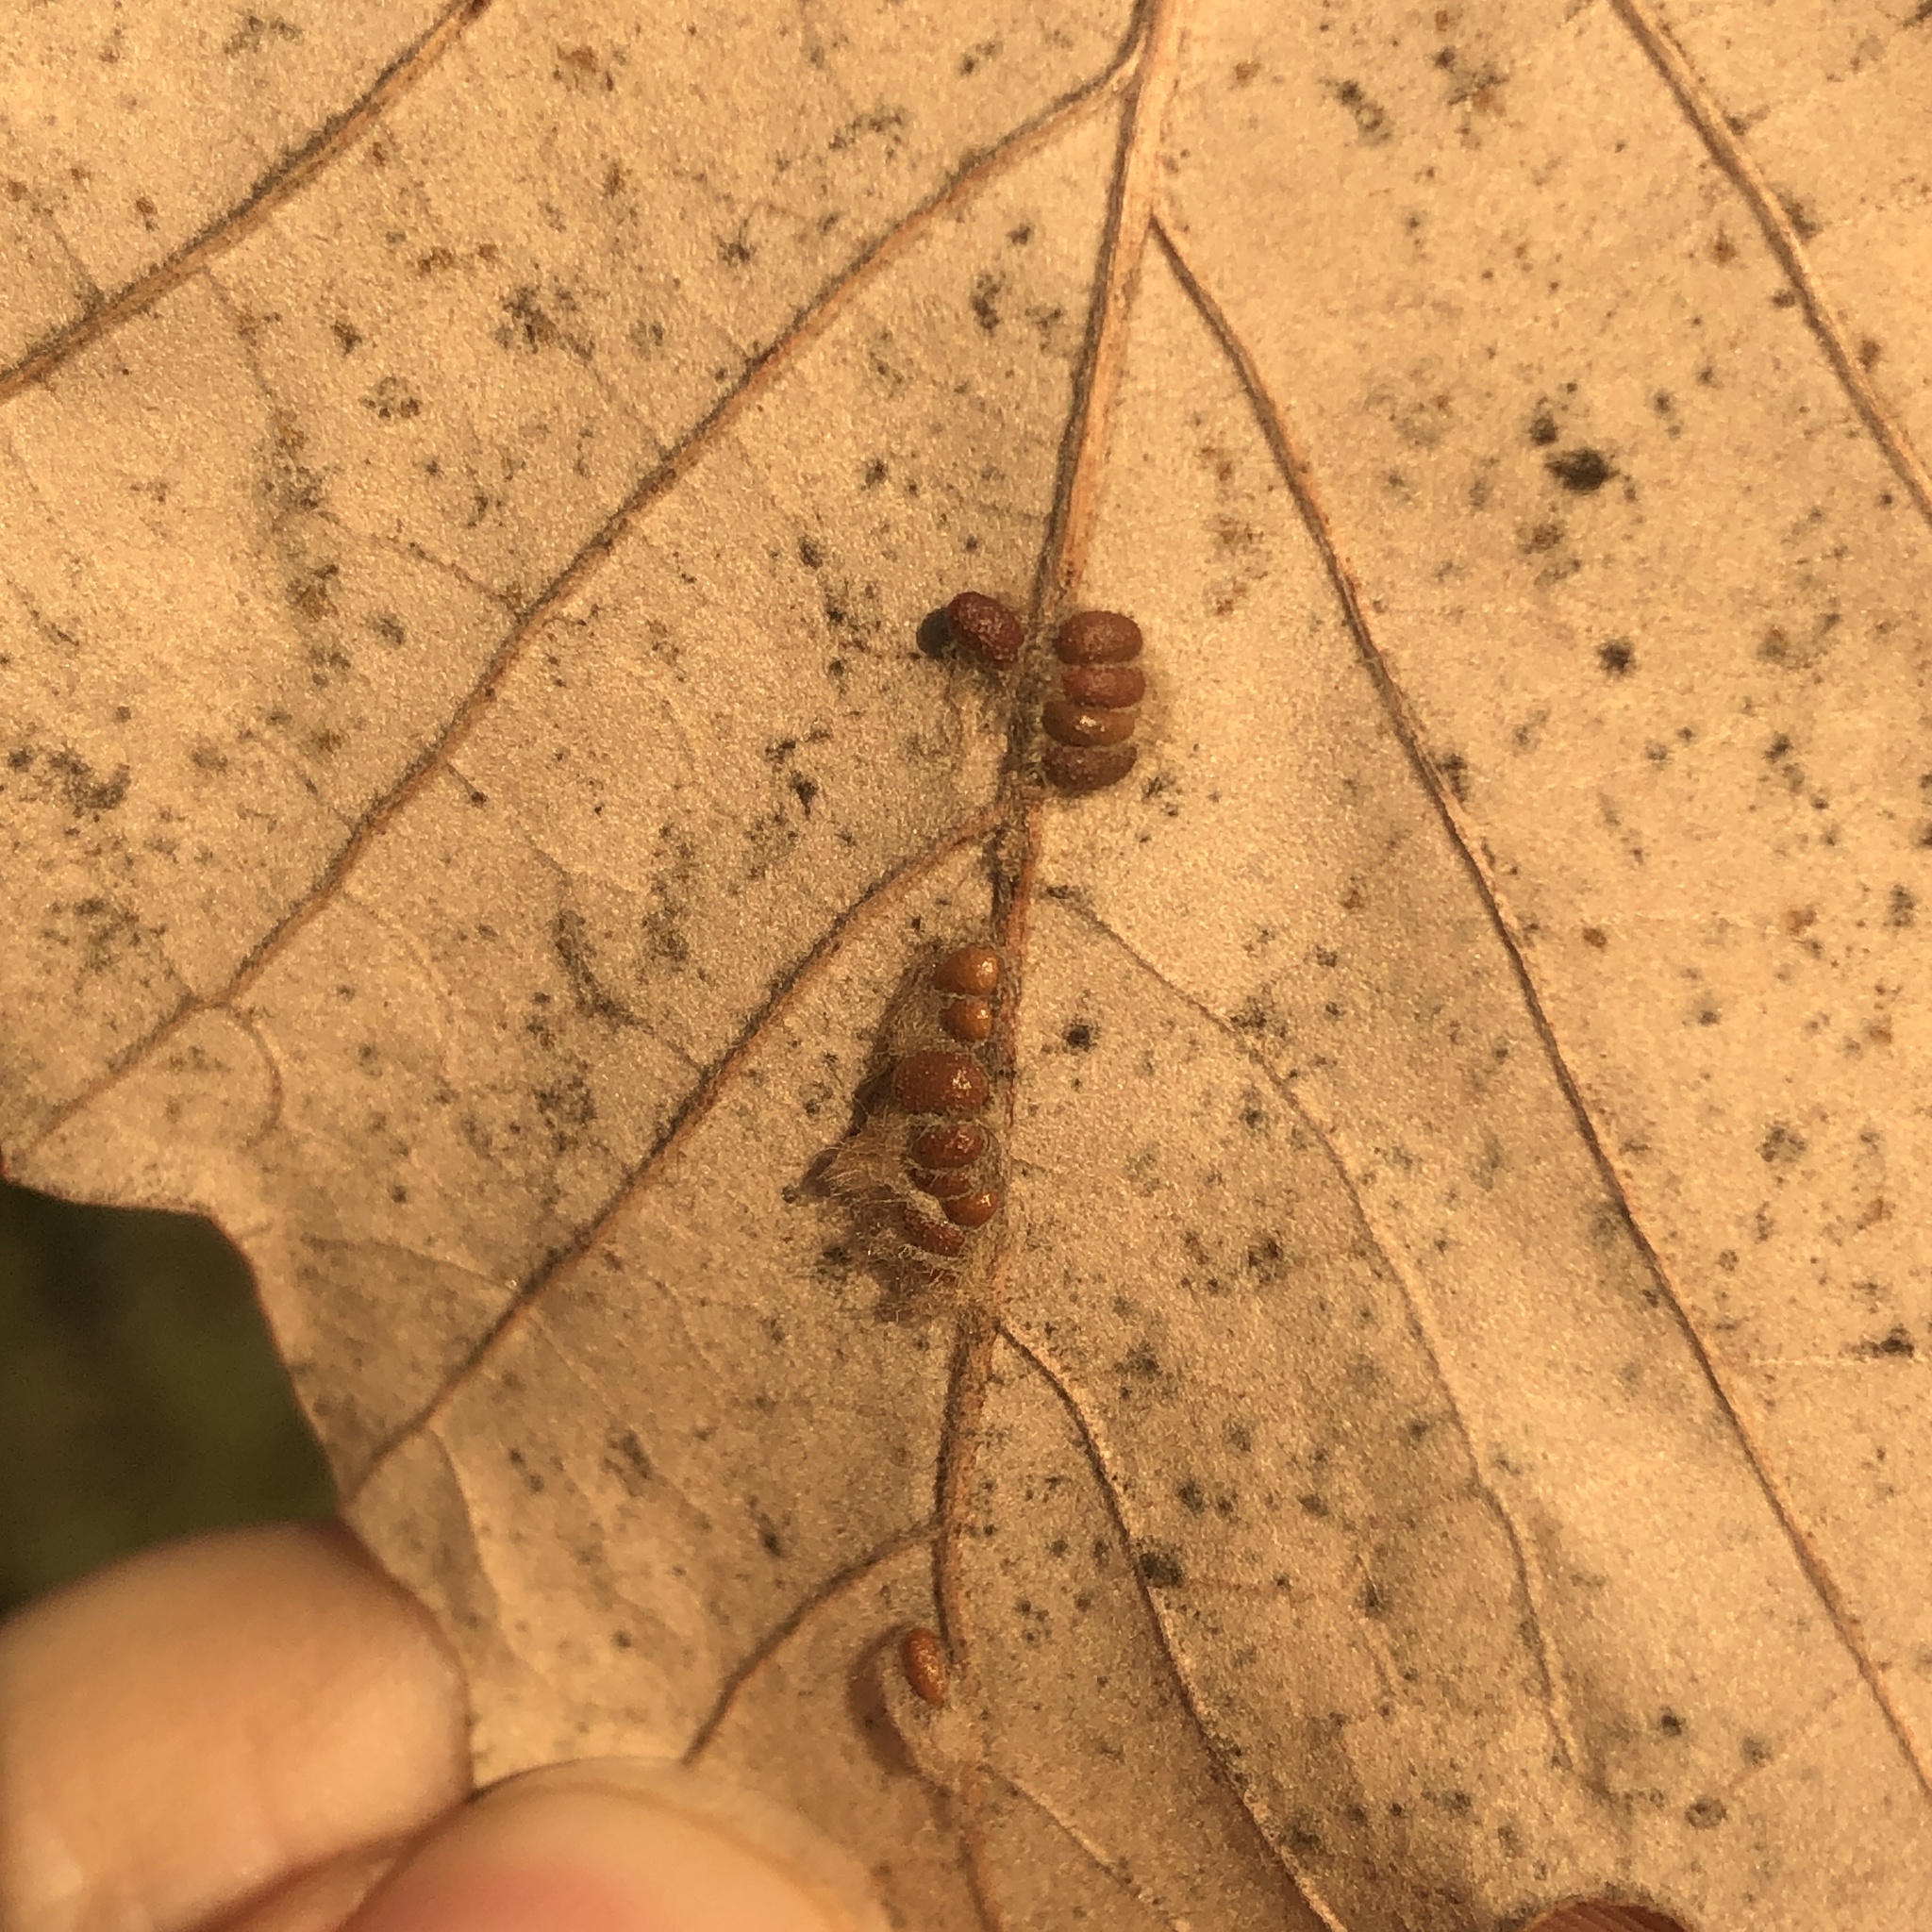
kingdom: Animalia
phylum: Arthropoda
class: Insecta
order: Hymenoptera
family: Cynipidae
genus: Andricus
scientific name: Andricus Druon ignotum
